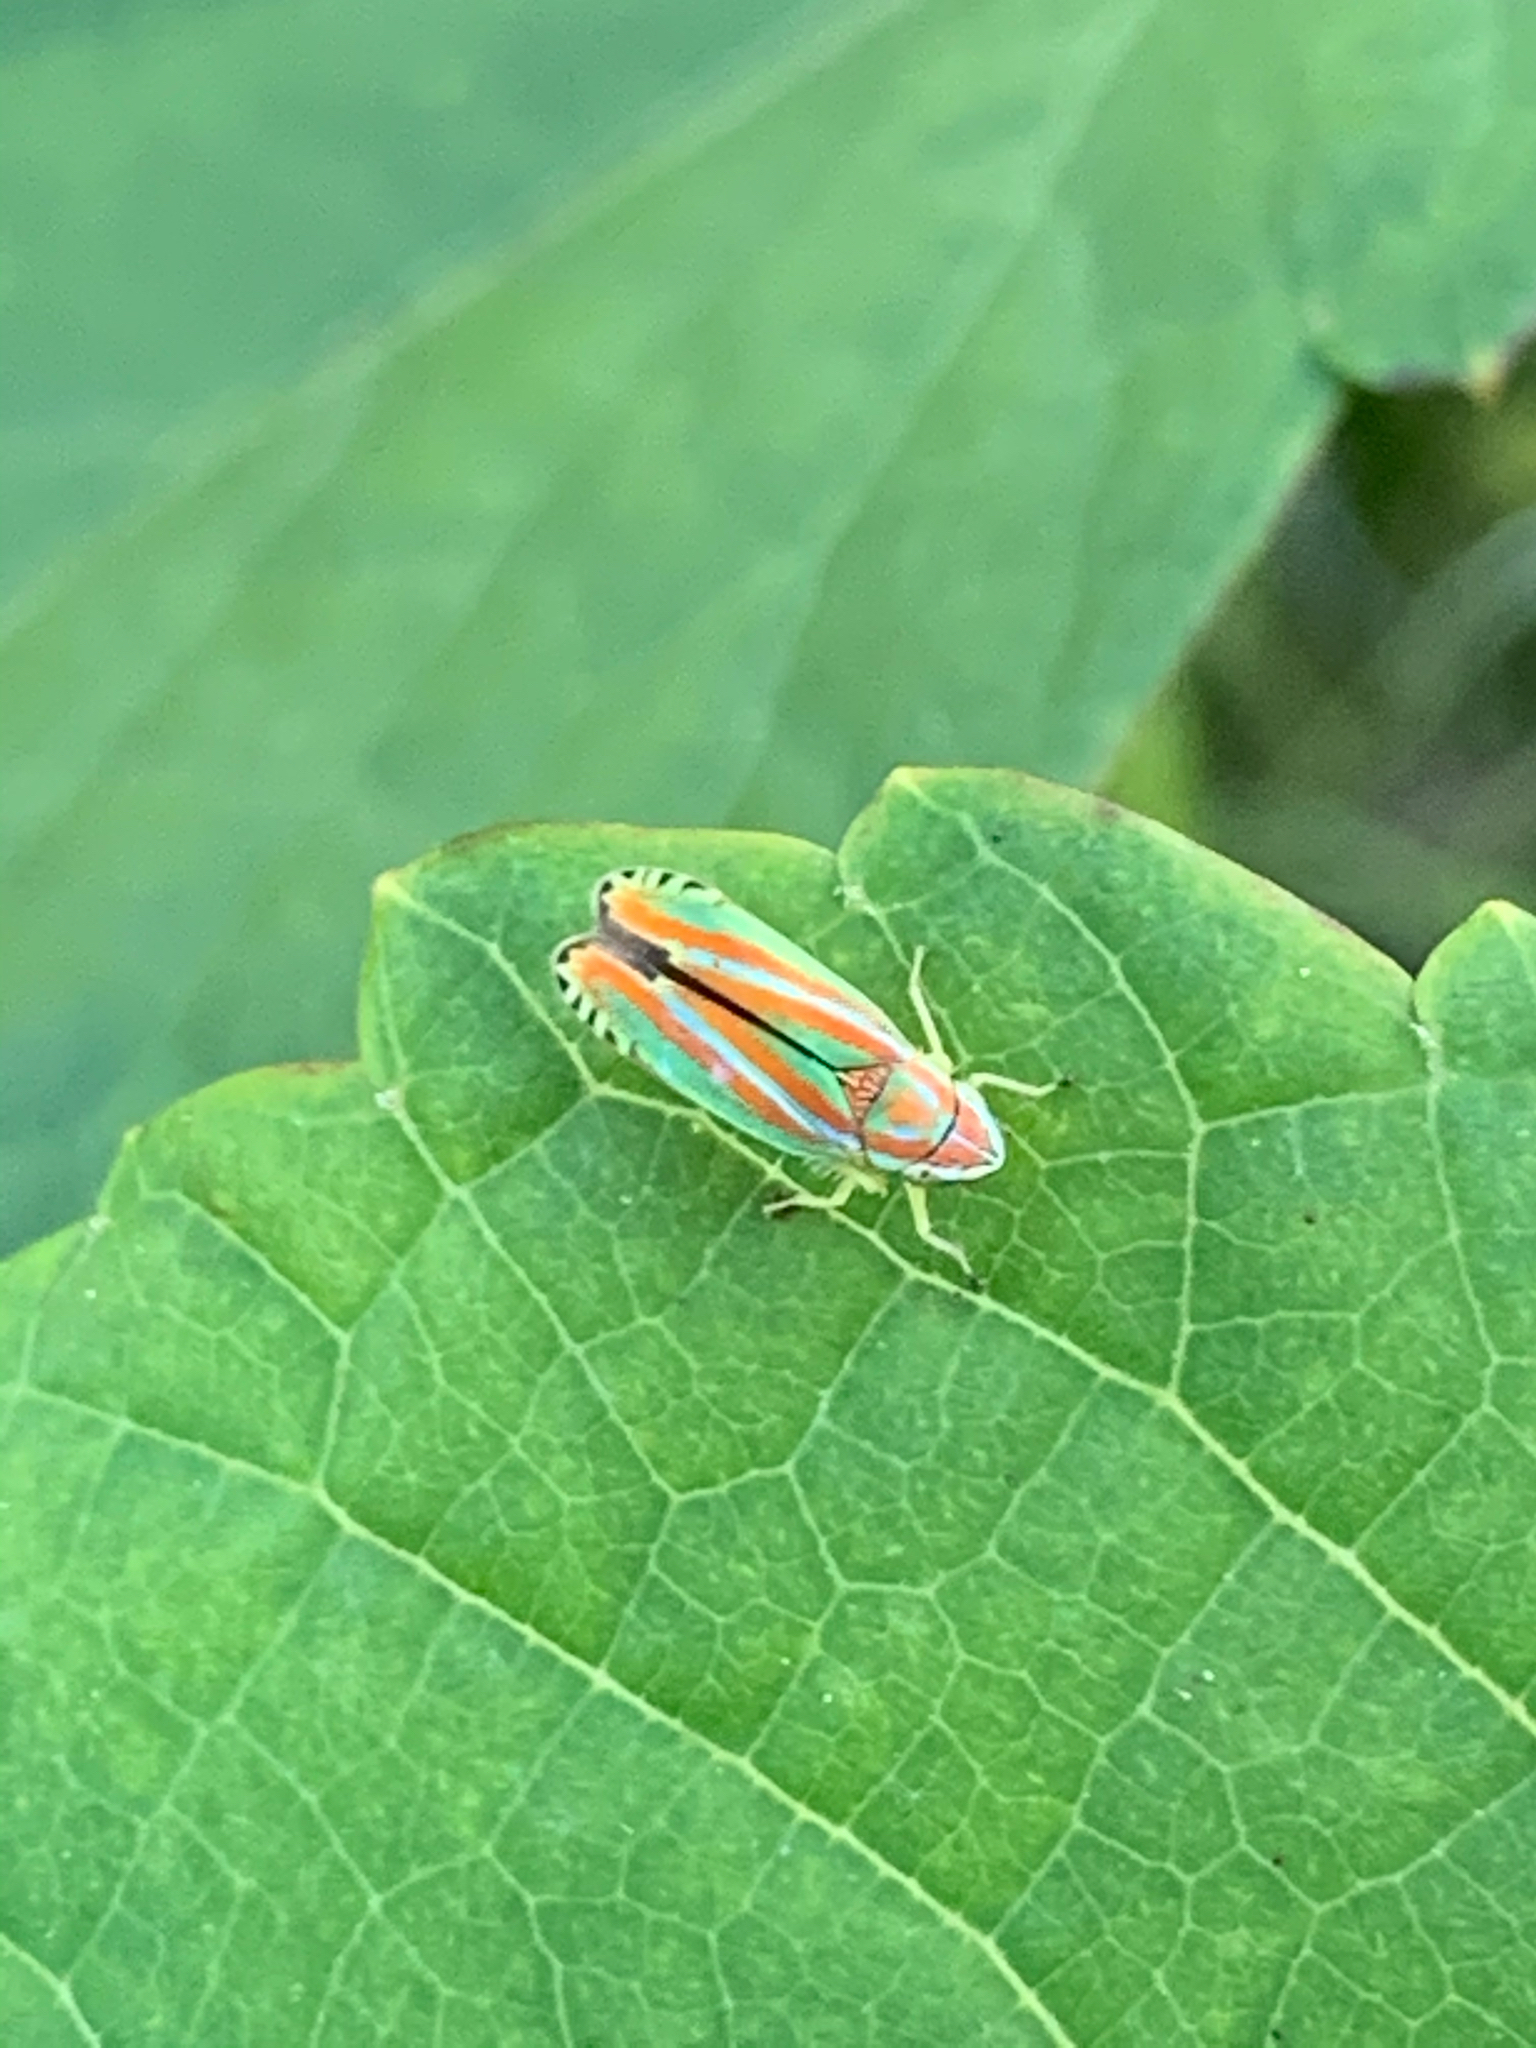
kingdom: Animalia
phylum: Arthropoda
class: Insecta
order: Hemiptera
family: Cicadellidae
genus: Graphocephala
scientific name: Graphocephala versuta
